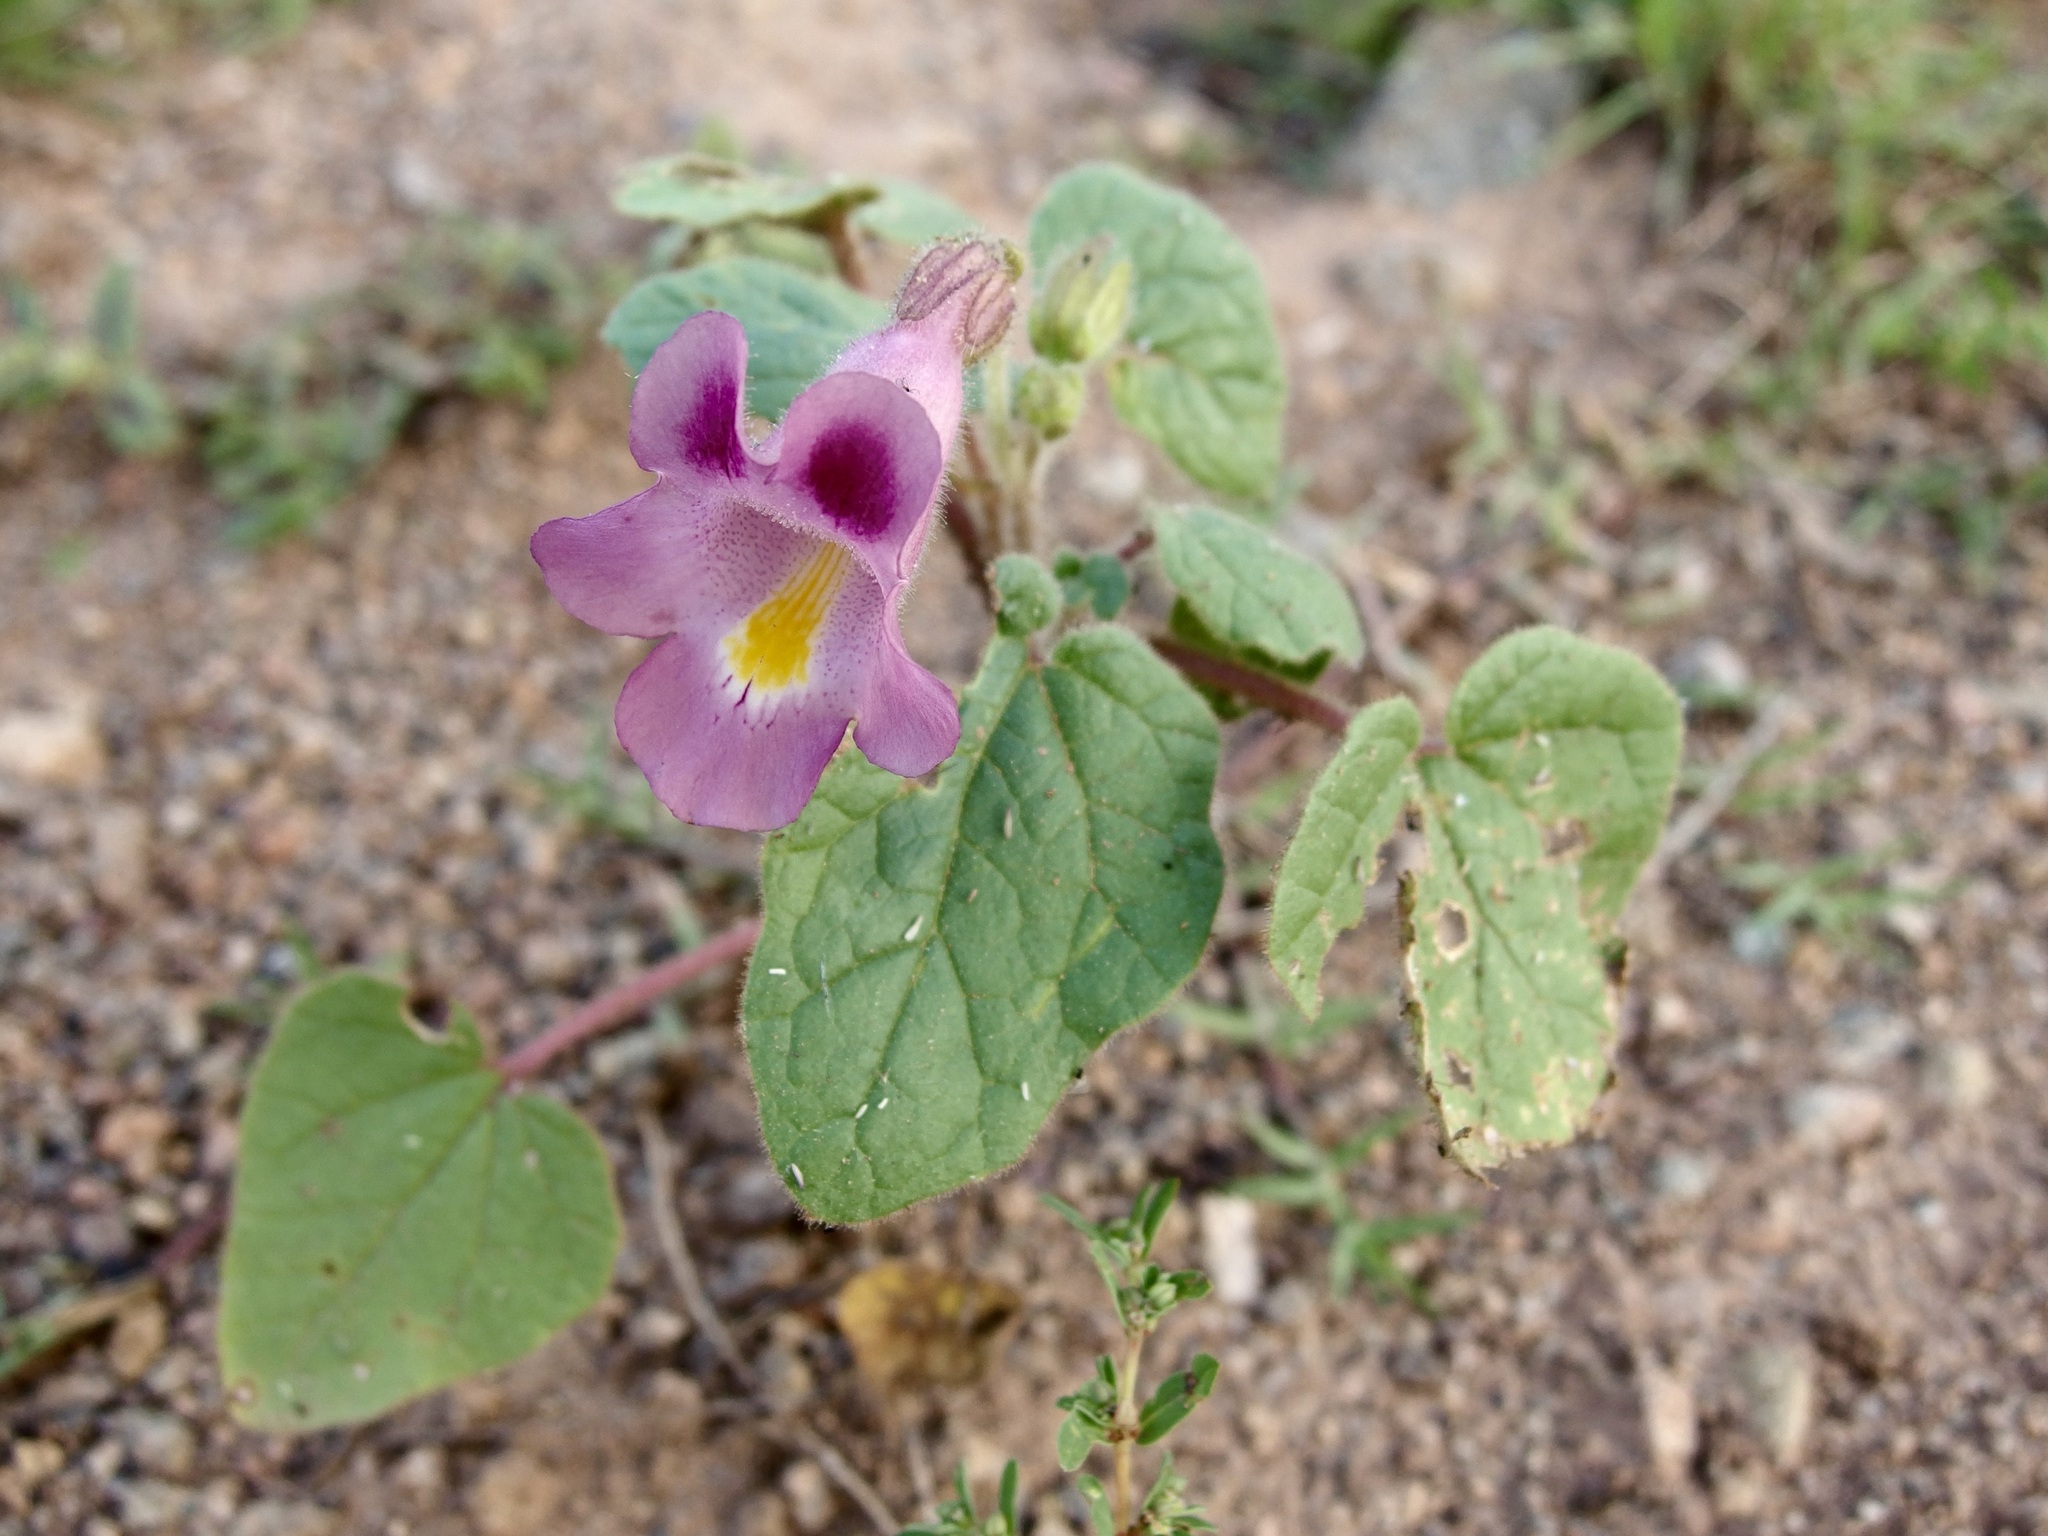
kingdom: Plantae
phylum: Tracheophyta
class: Magnoliopsida
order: Lamiales
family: Martyniaceae
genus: Proboscidea
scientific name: Proboscidea parviflora
